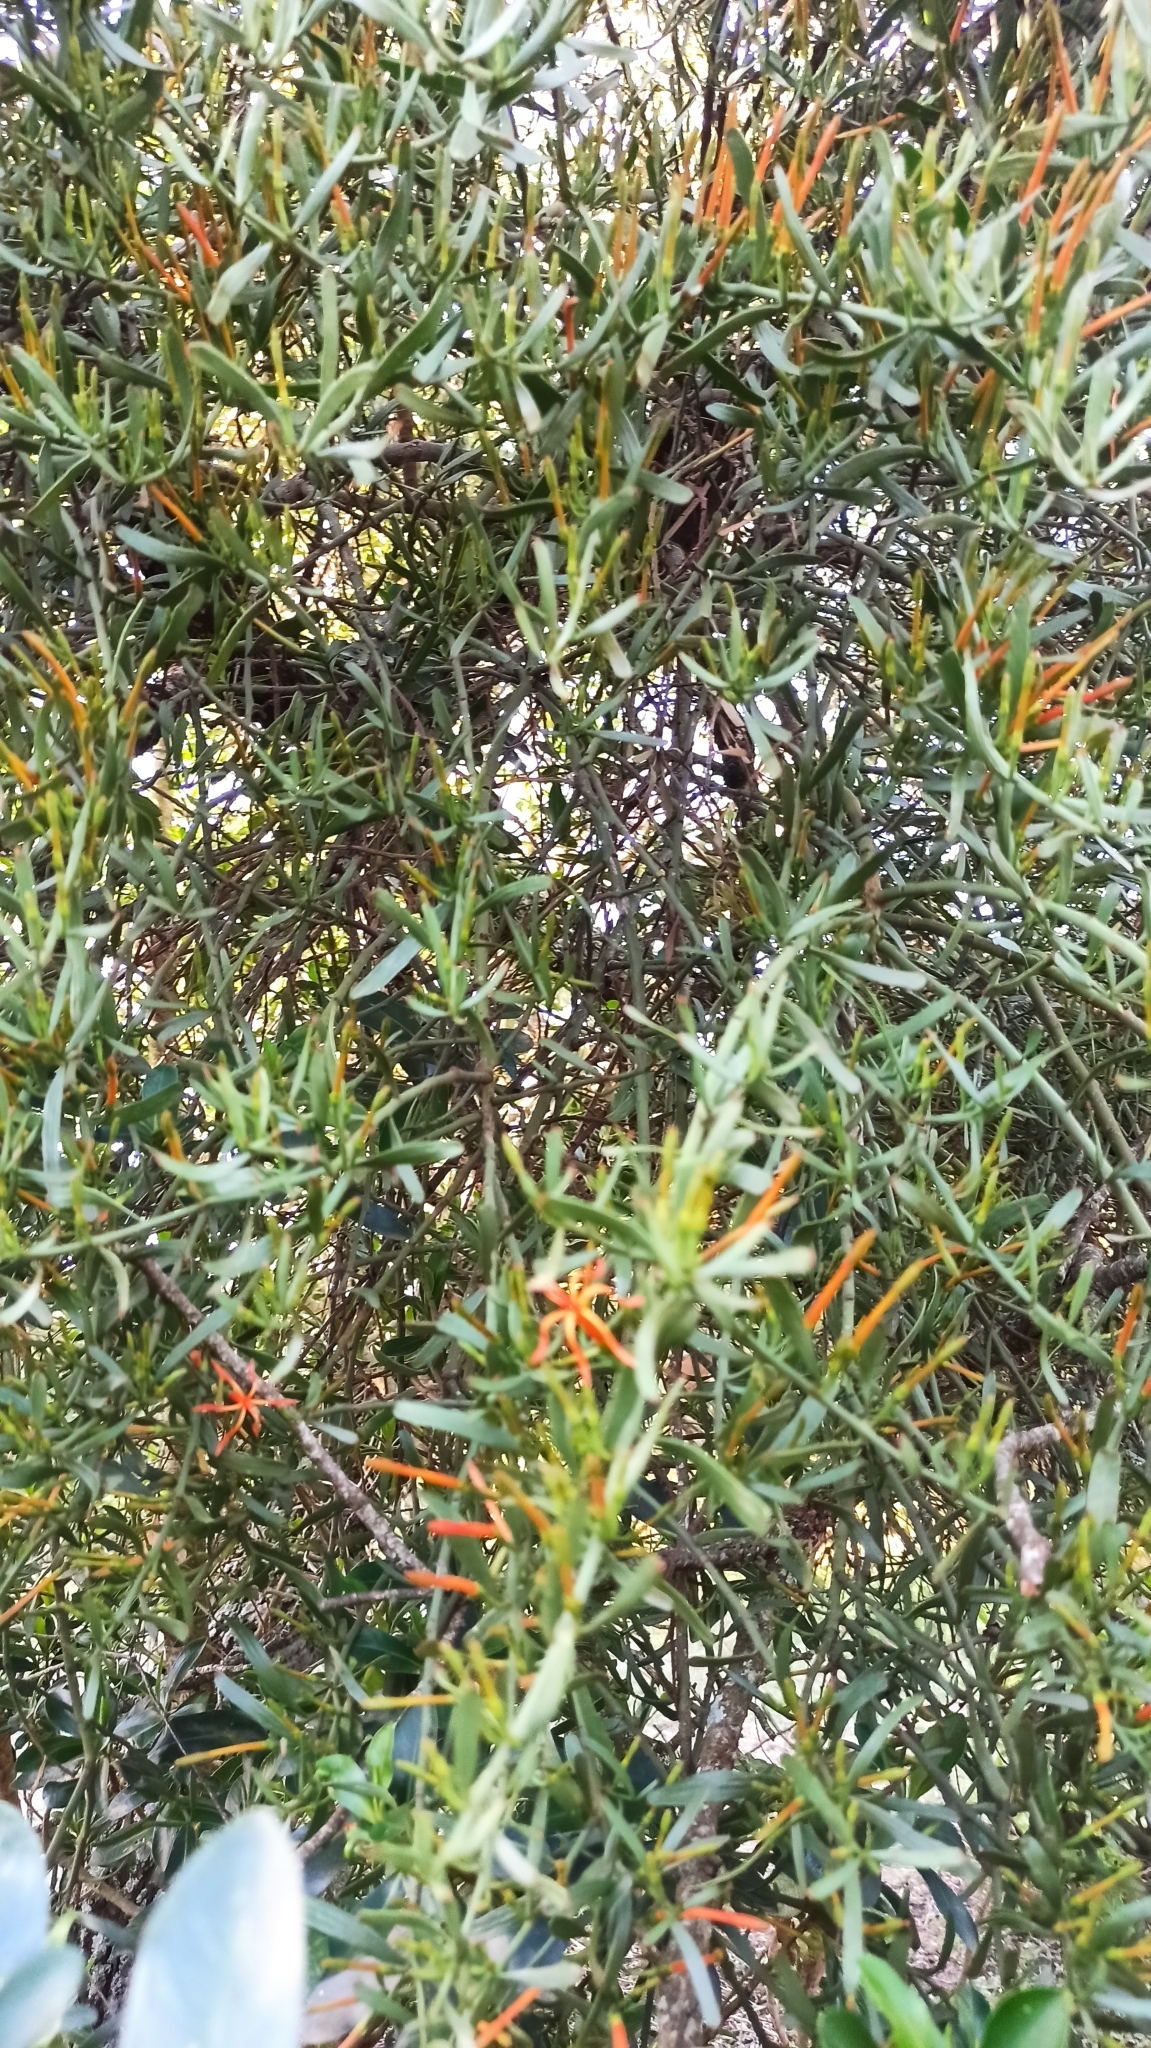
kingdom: Plantae
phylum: Tracheophyta
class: Magnoliopsida
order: Santalales
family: Loranthaceae
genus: Ligaria
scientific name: Ligaria cuneifolia
